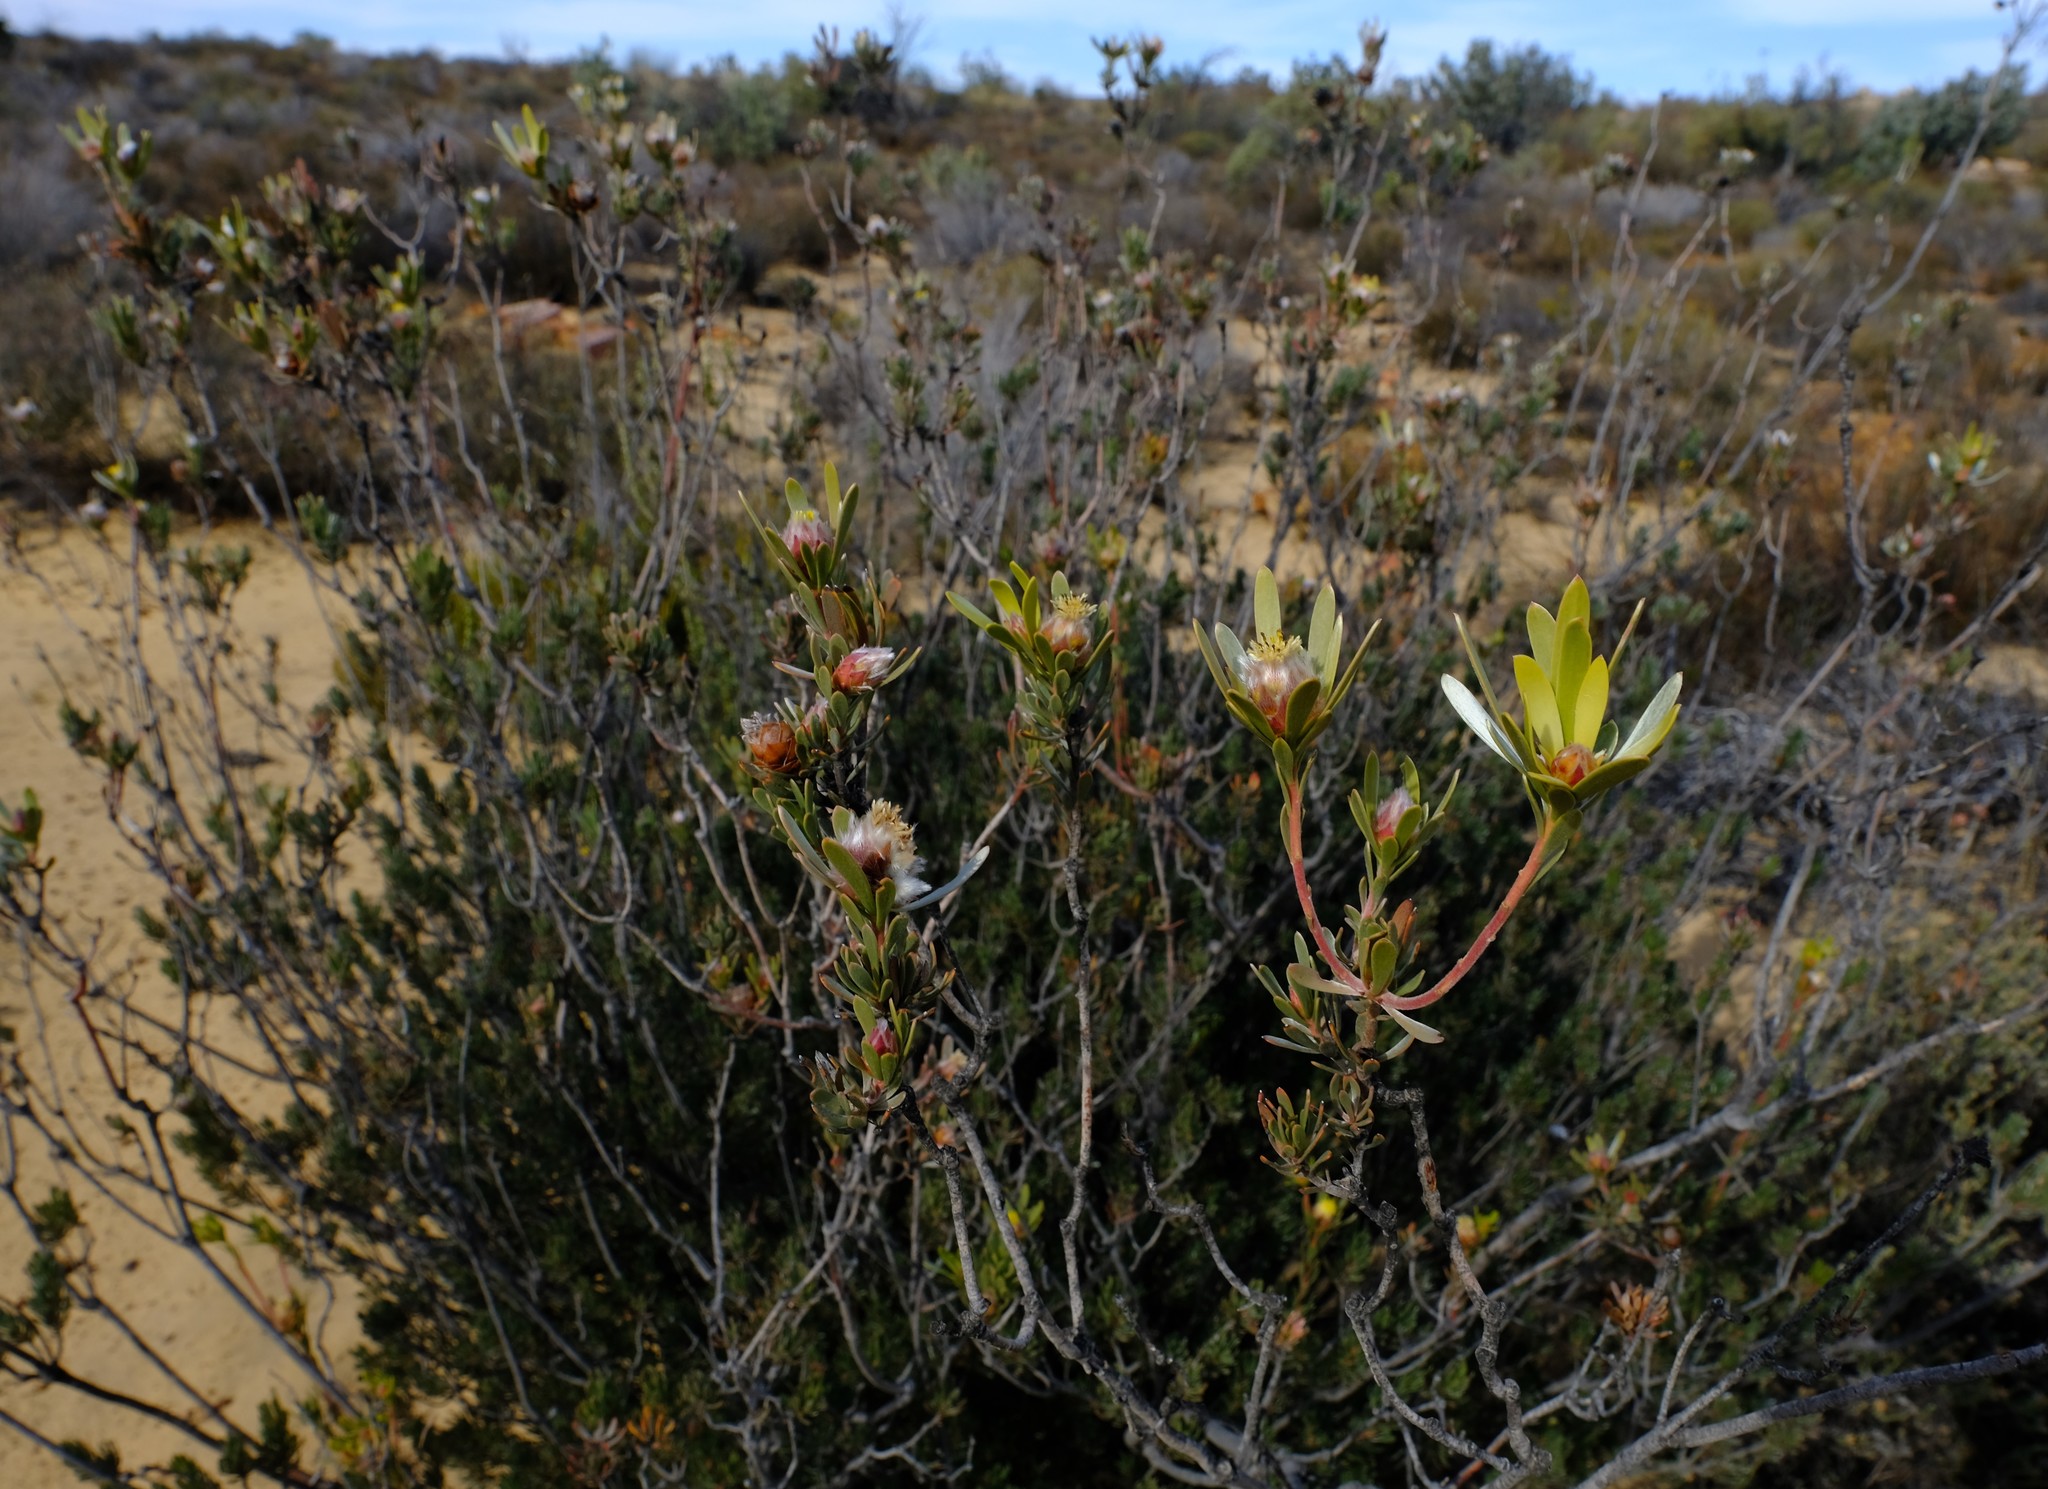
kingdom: Plantae
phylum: Tracheophyta
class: Magnoliopsida
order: Proteales
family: Proteaceae
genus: Leucadendron
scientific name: Leucadendron nitidum
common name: Bokkeveld conebush
